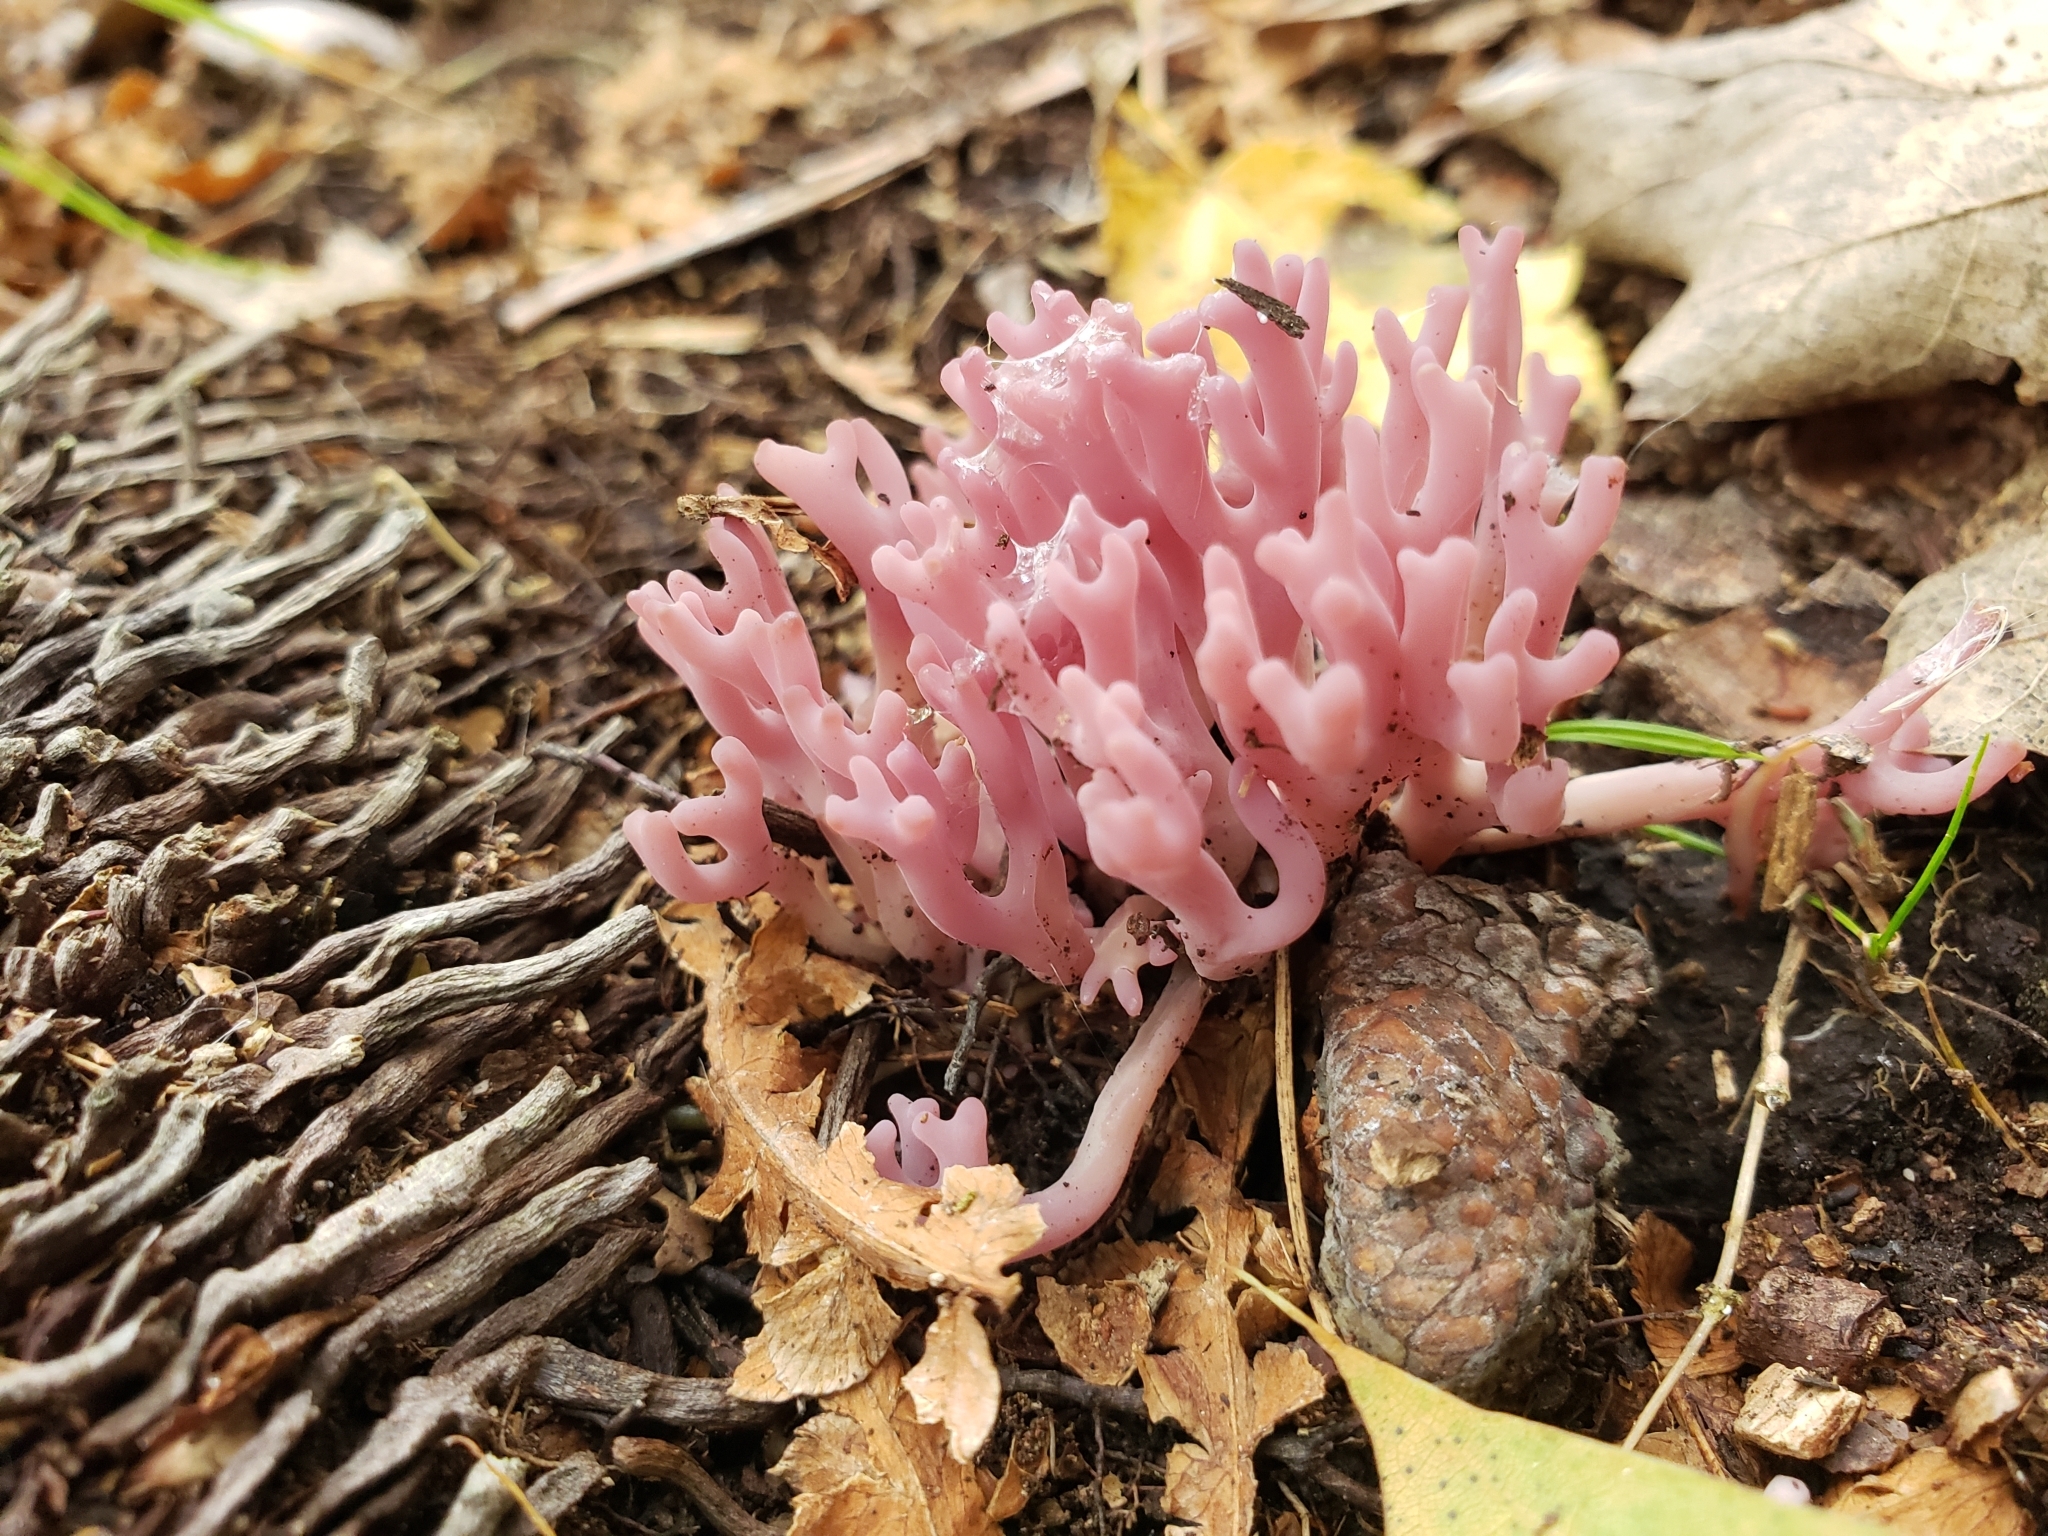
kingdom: Fungi
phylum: Basidiomycota
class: Agaricomycetes
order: Agaricales
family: Clavariaceae
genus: Clavaria
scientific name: Clavaria zollingeri
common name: Violet coral
